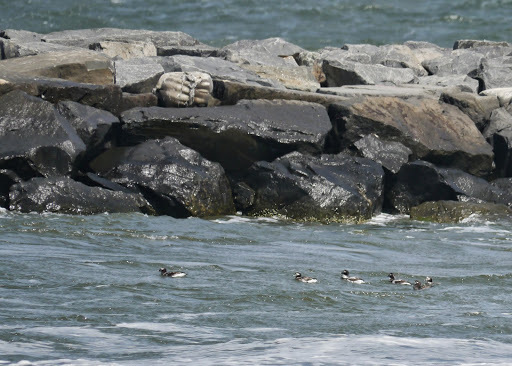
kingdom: Animalia
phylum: Chordata
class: Aves
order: Anseriformes
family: Anatidae
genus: Clangula
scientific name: Clangula hyemalis
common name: Long-tailed duck
